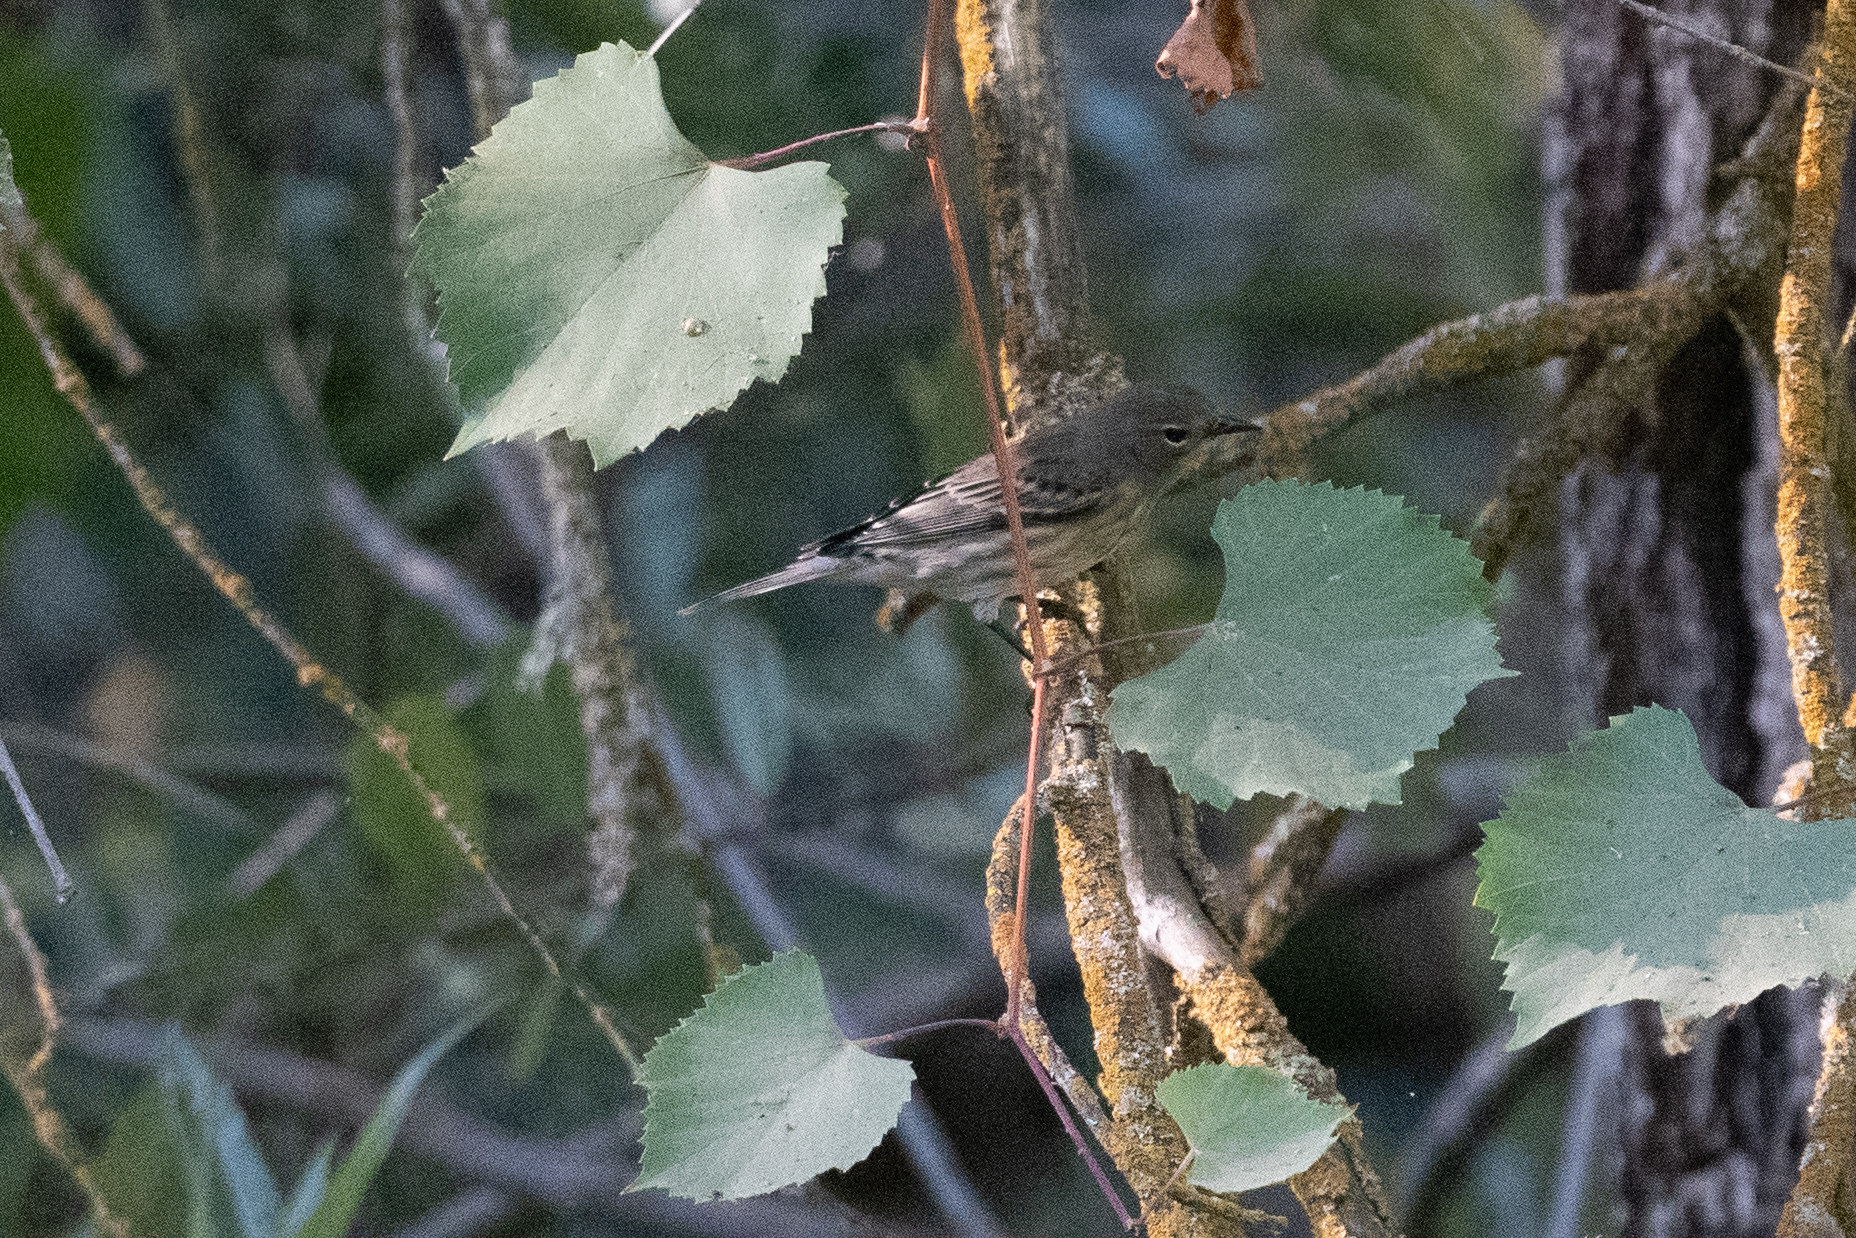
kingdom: Animalia
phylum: Chordata
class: Aves
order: Passeriformes
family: Parulidae
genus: Setophaga
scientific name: Setophaga coronata
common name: Myrtle warbler
